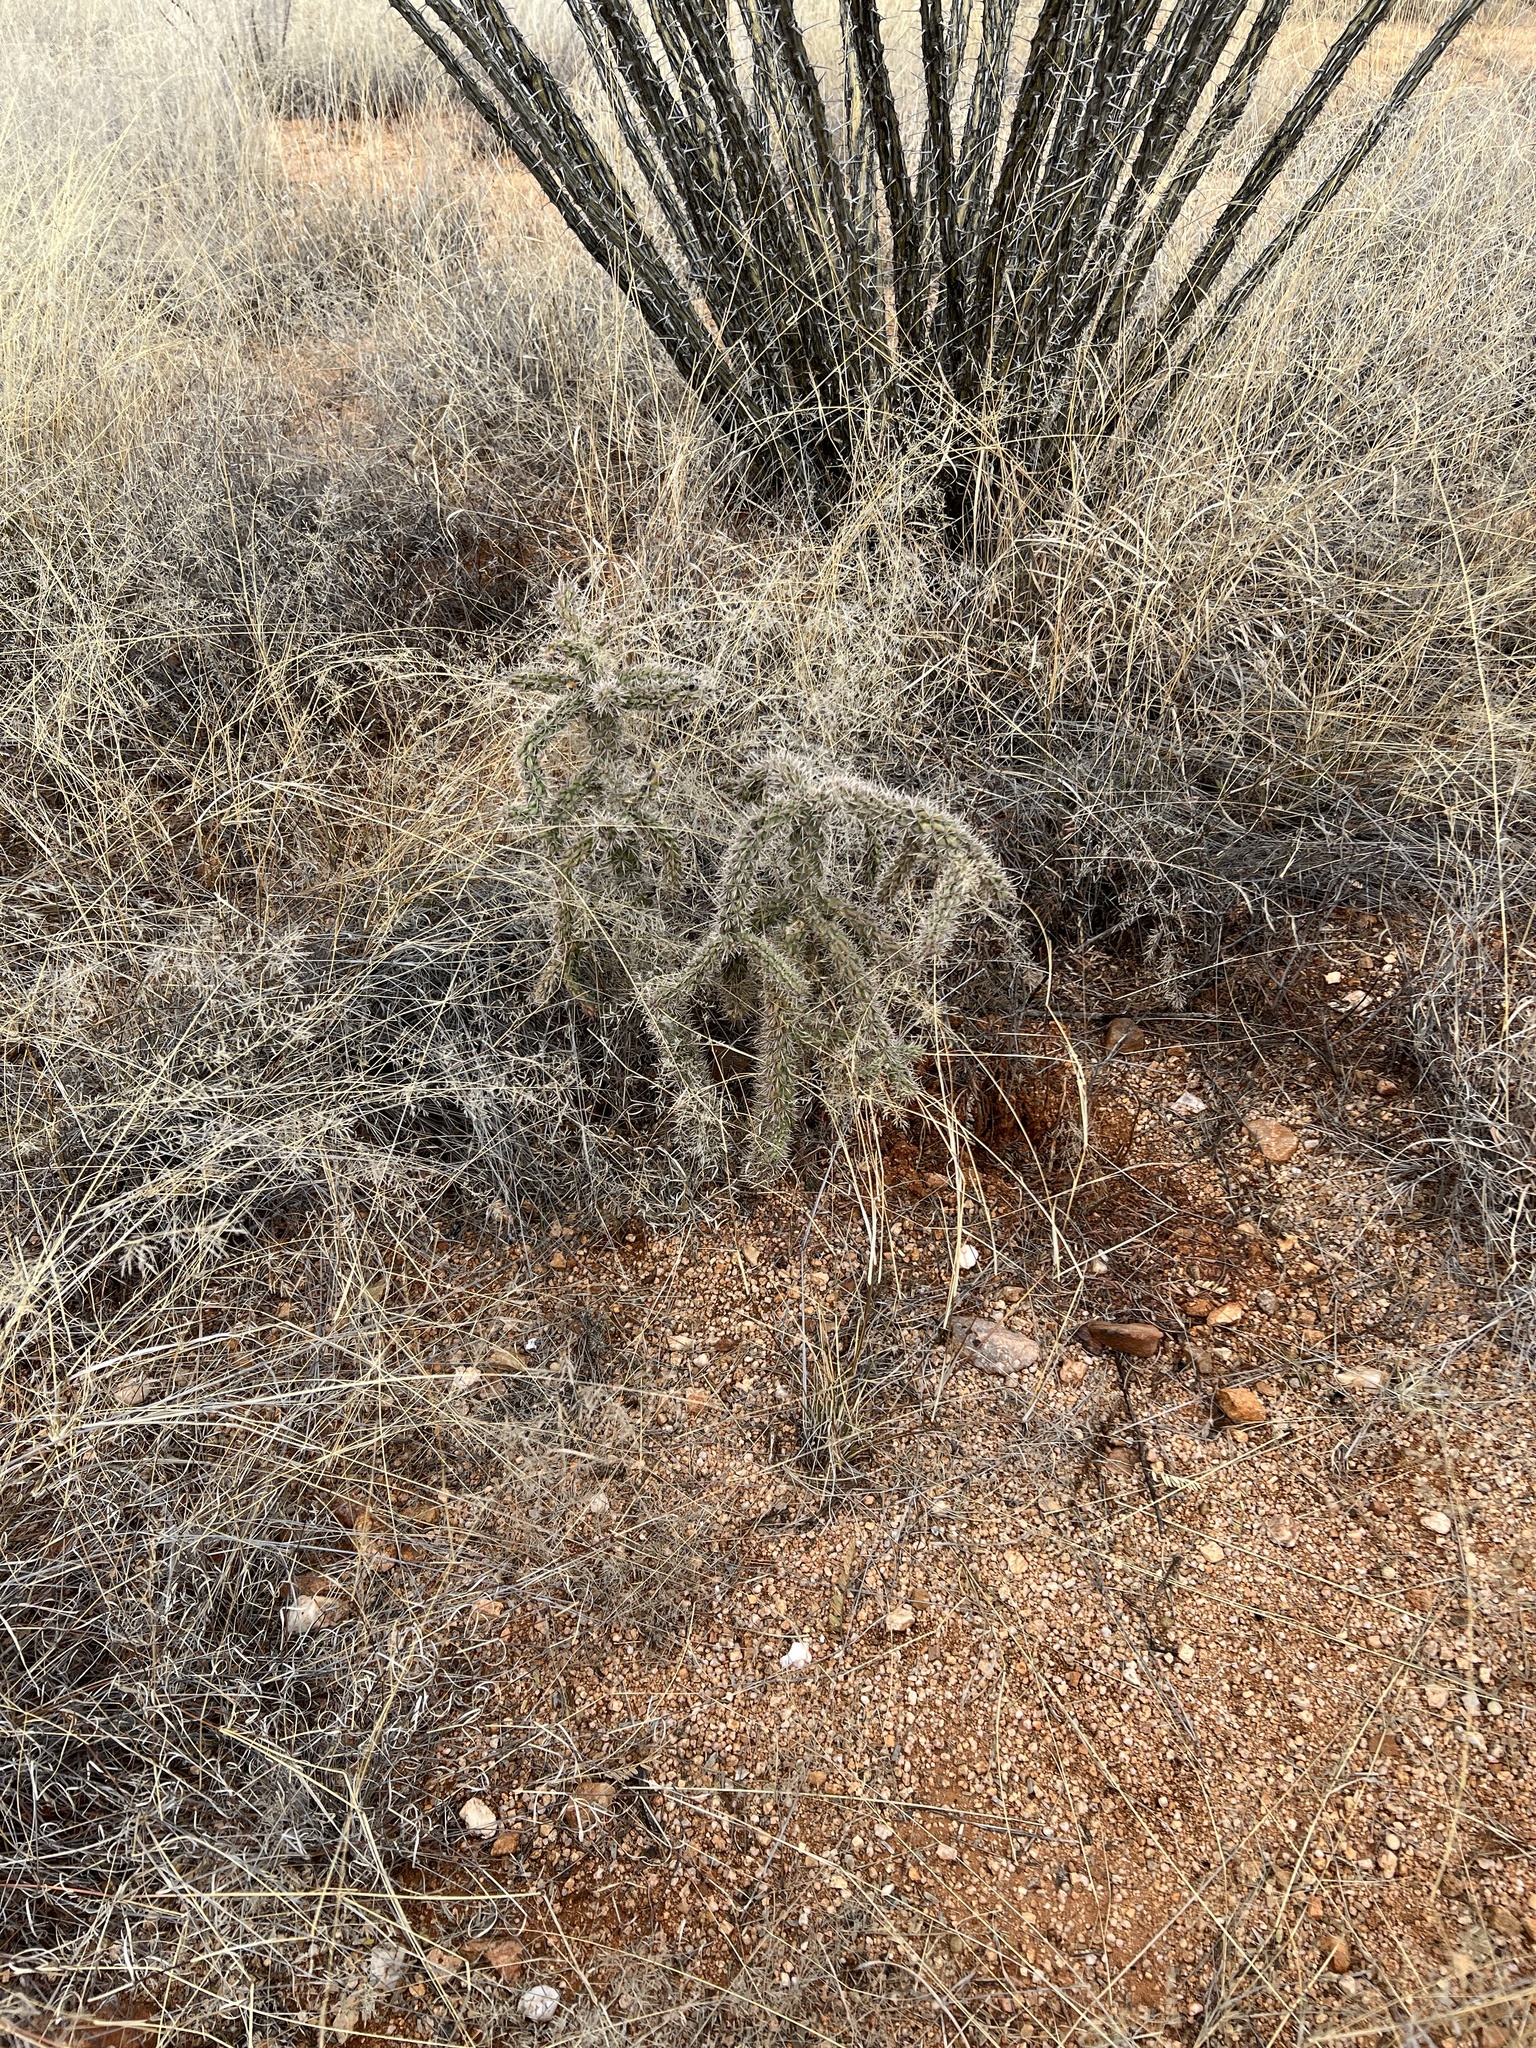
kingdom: Plantae
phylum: Tracheophyta
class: Magnoliopsida
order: Caryophyllales
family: Cactaceae
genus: Cylindropuntia
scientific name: Cylindropuntia imbricata
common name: Candelabrum cactus
